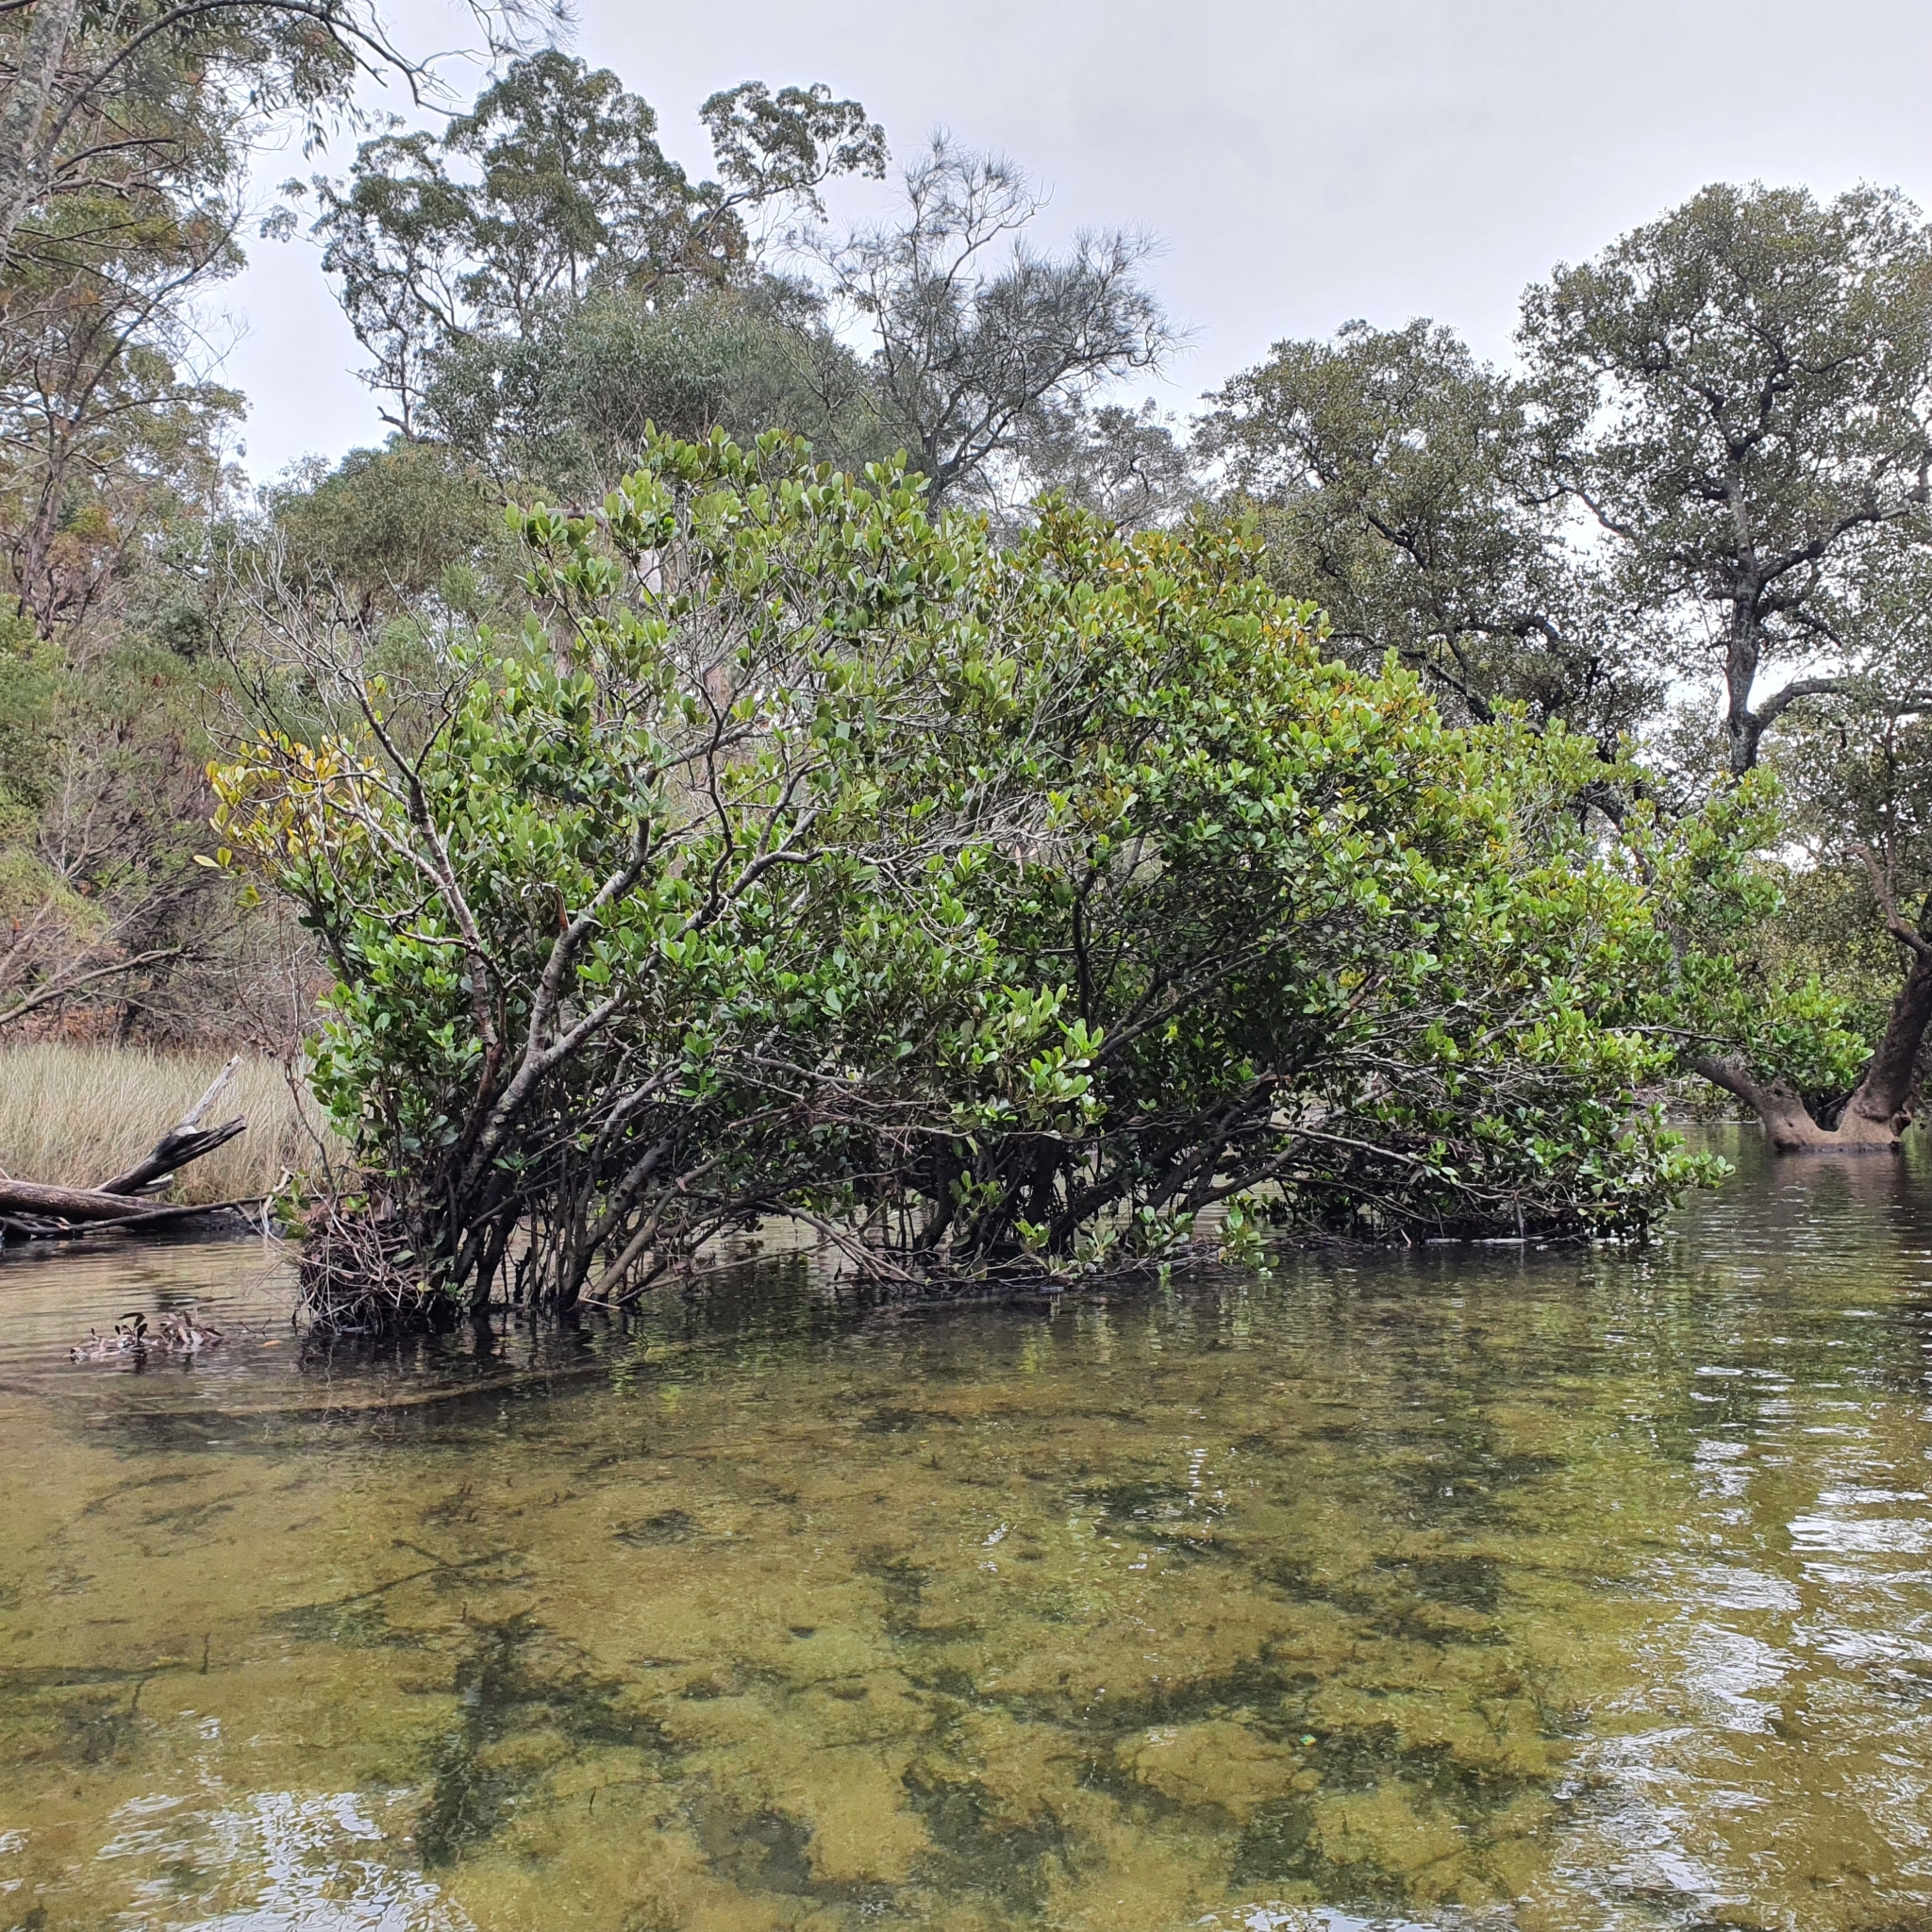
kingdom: Plantae
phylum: Tracheophyta
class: Magnoliopsida
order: Ericales
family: Primulaceae
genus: Aegiceras
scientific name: Aegiceras corniculatum
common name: River mangrove
